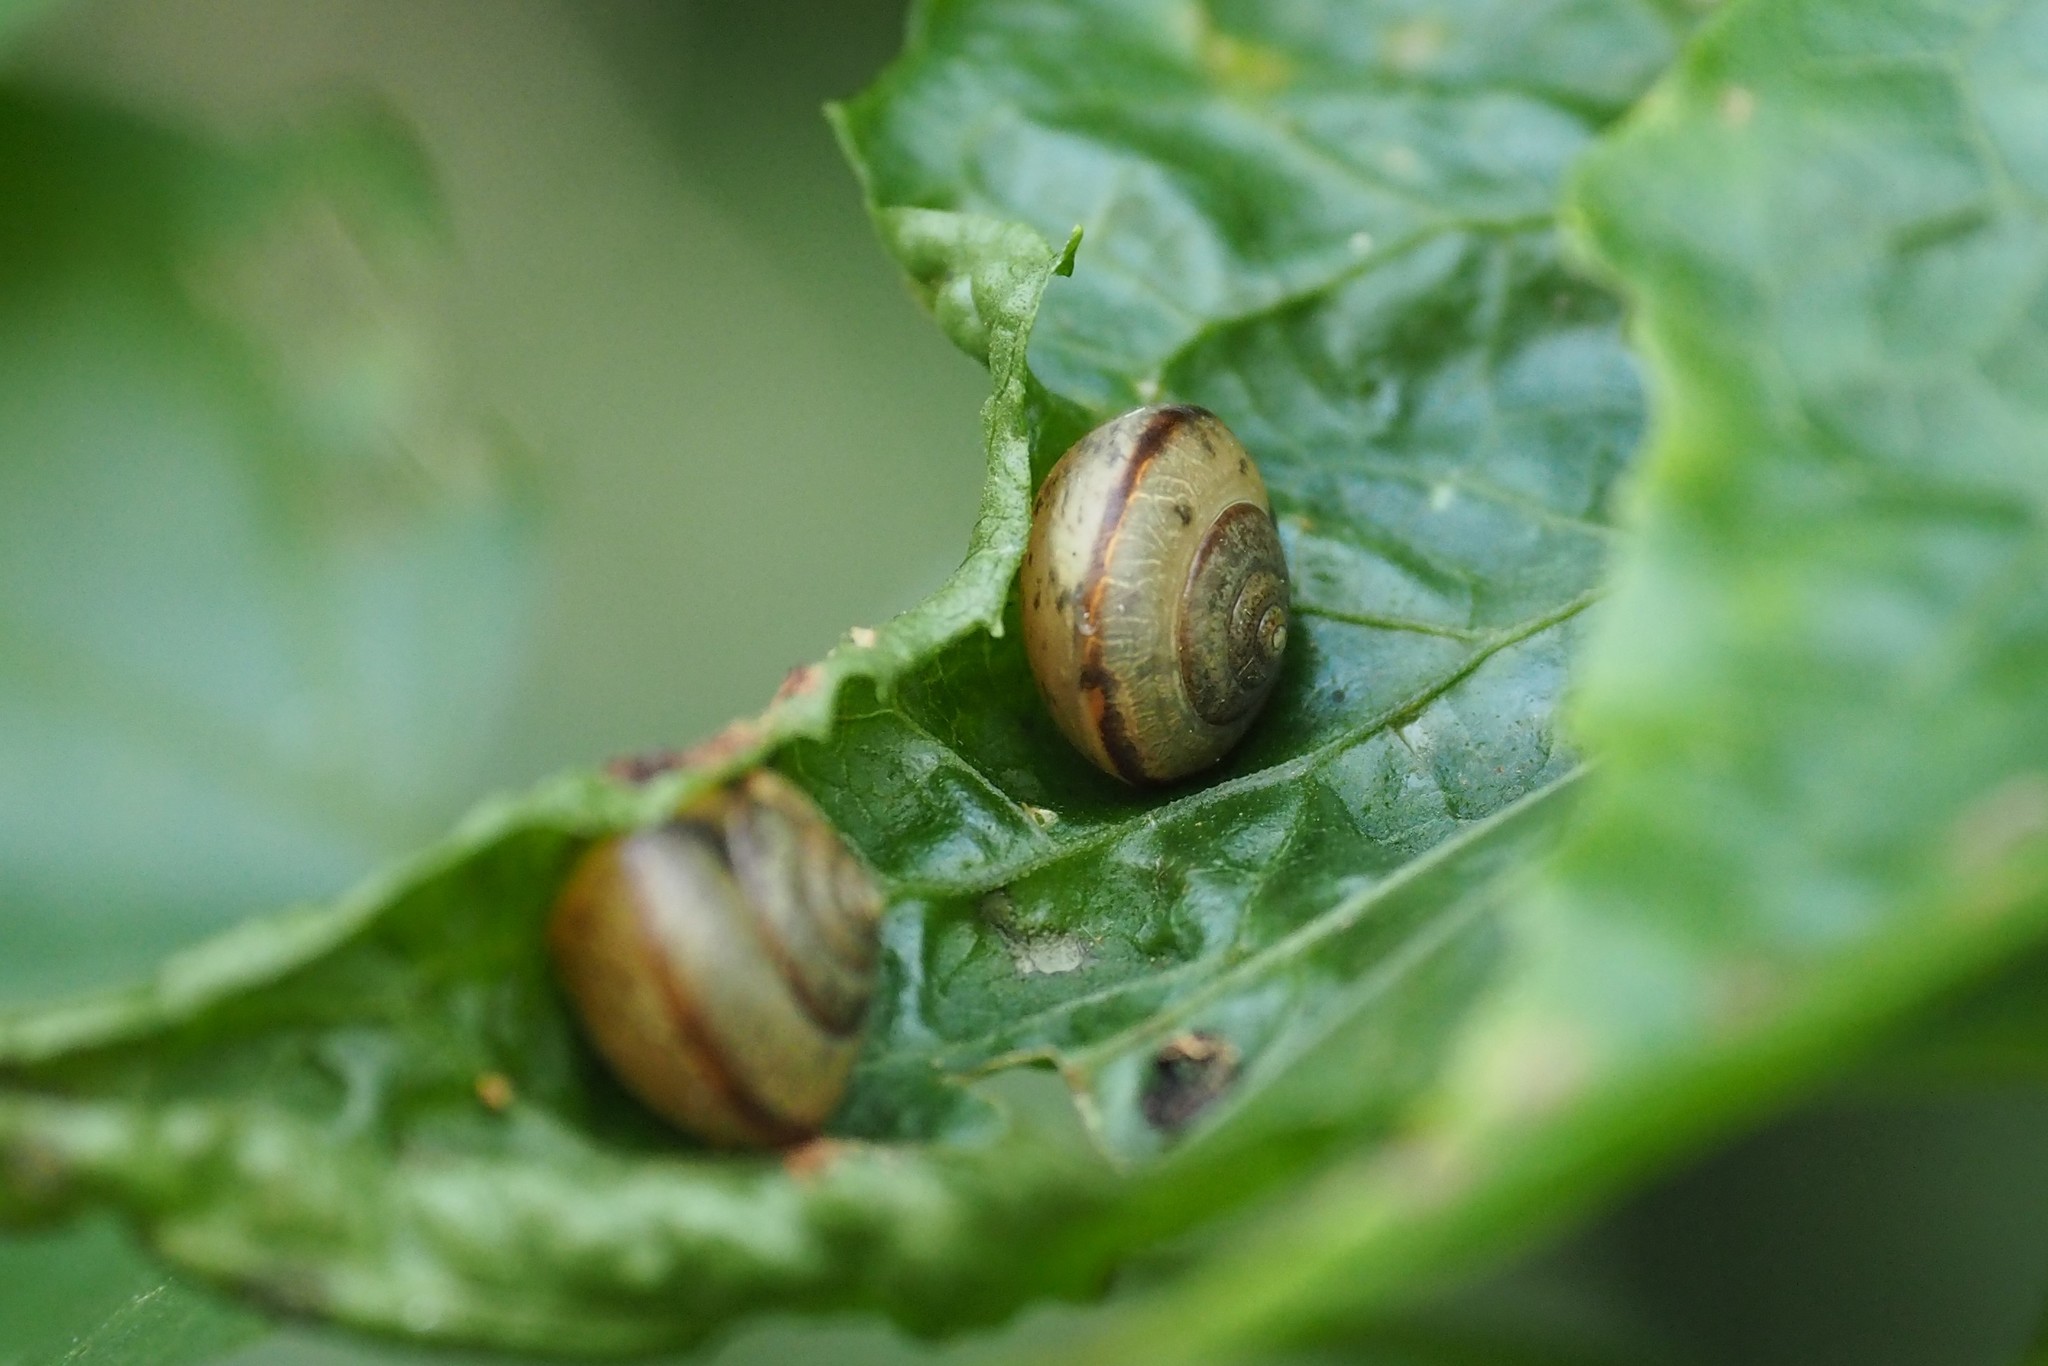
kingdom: Animalia
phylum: Mollusca
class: Gastropoda
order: Stylommatophora
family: Camaenidae
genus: Bradybaena
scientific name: Bradybaena similaris
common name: Asian trampsnail
